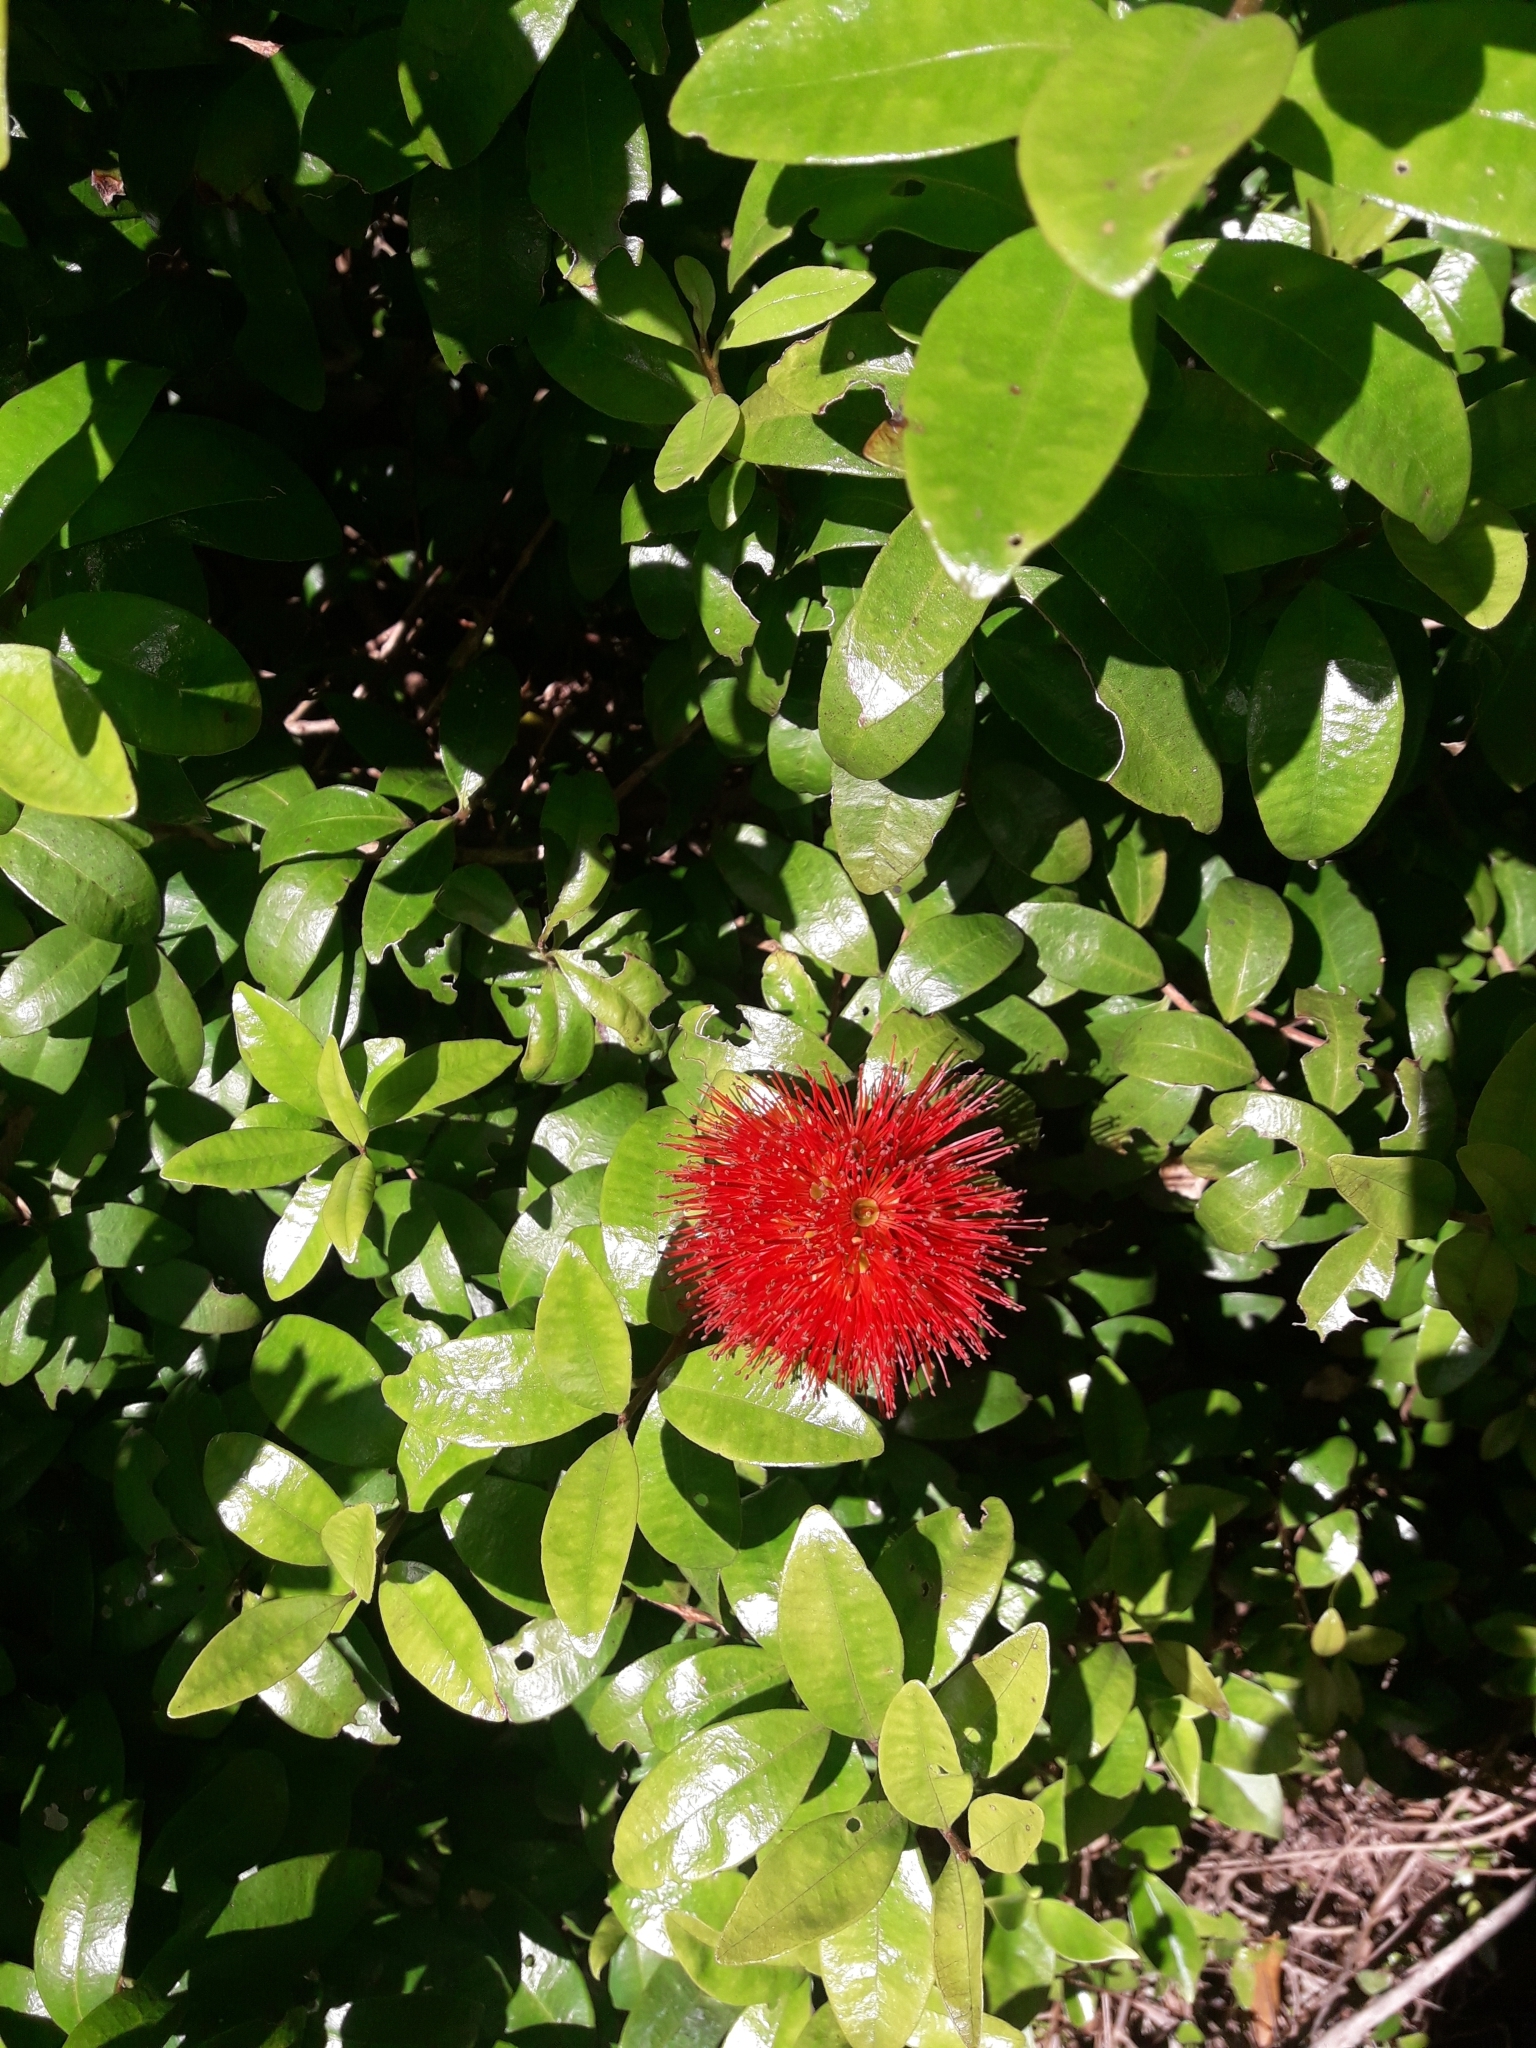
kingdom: Plantae
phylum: Tracheophyta
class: Magnoliopsida
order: Myrtales
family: Myrtaceae
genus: Metrosideros
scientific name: Metrosideros fulgens
